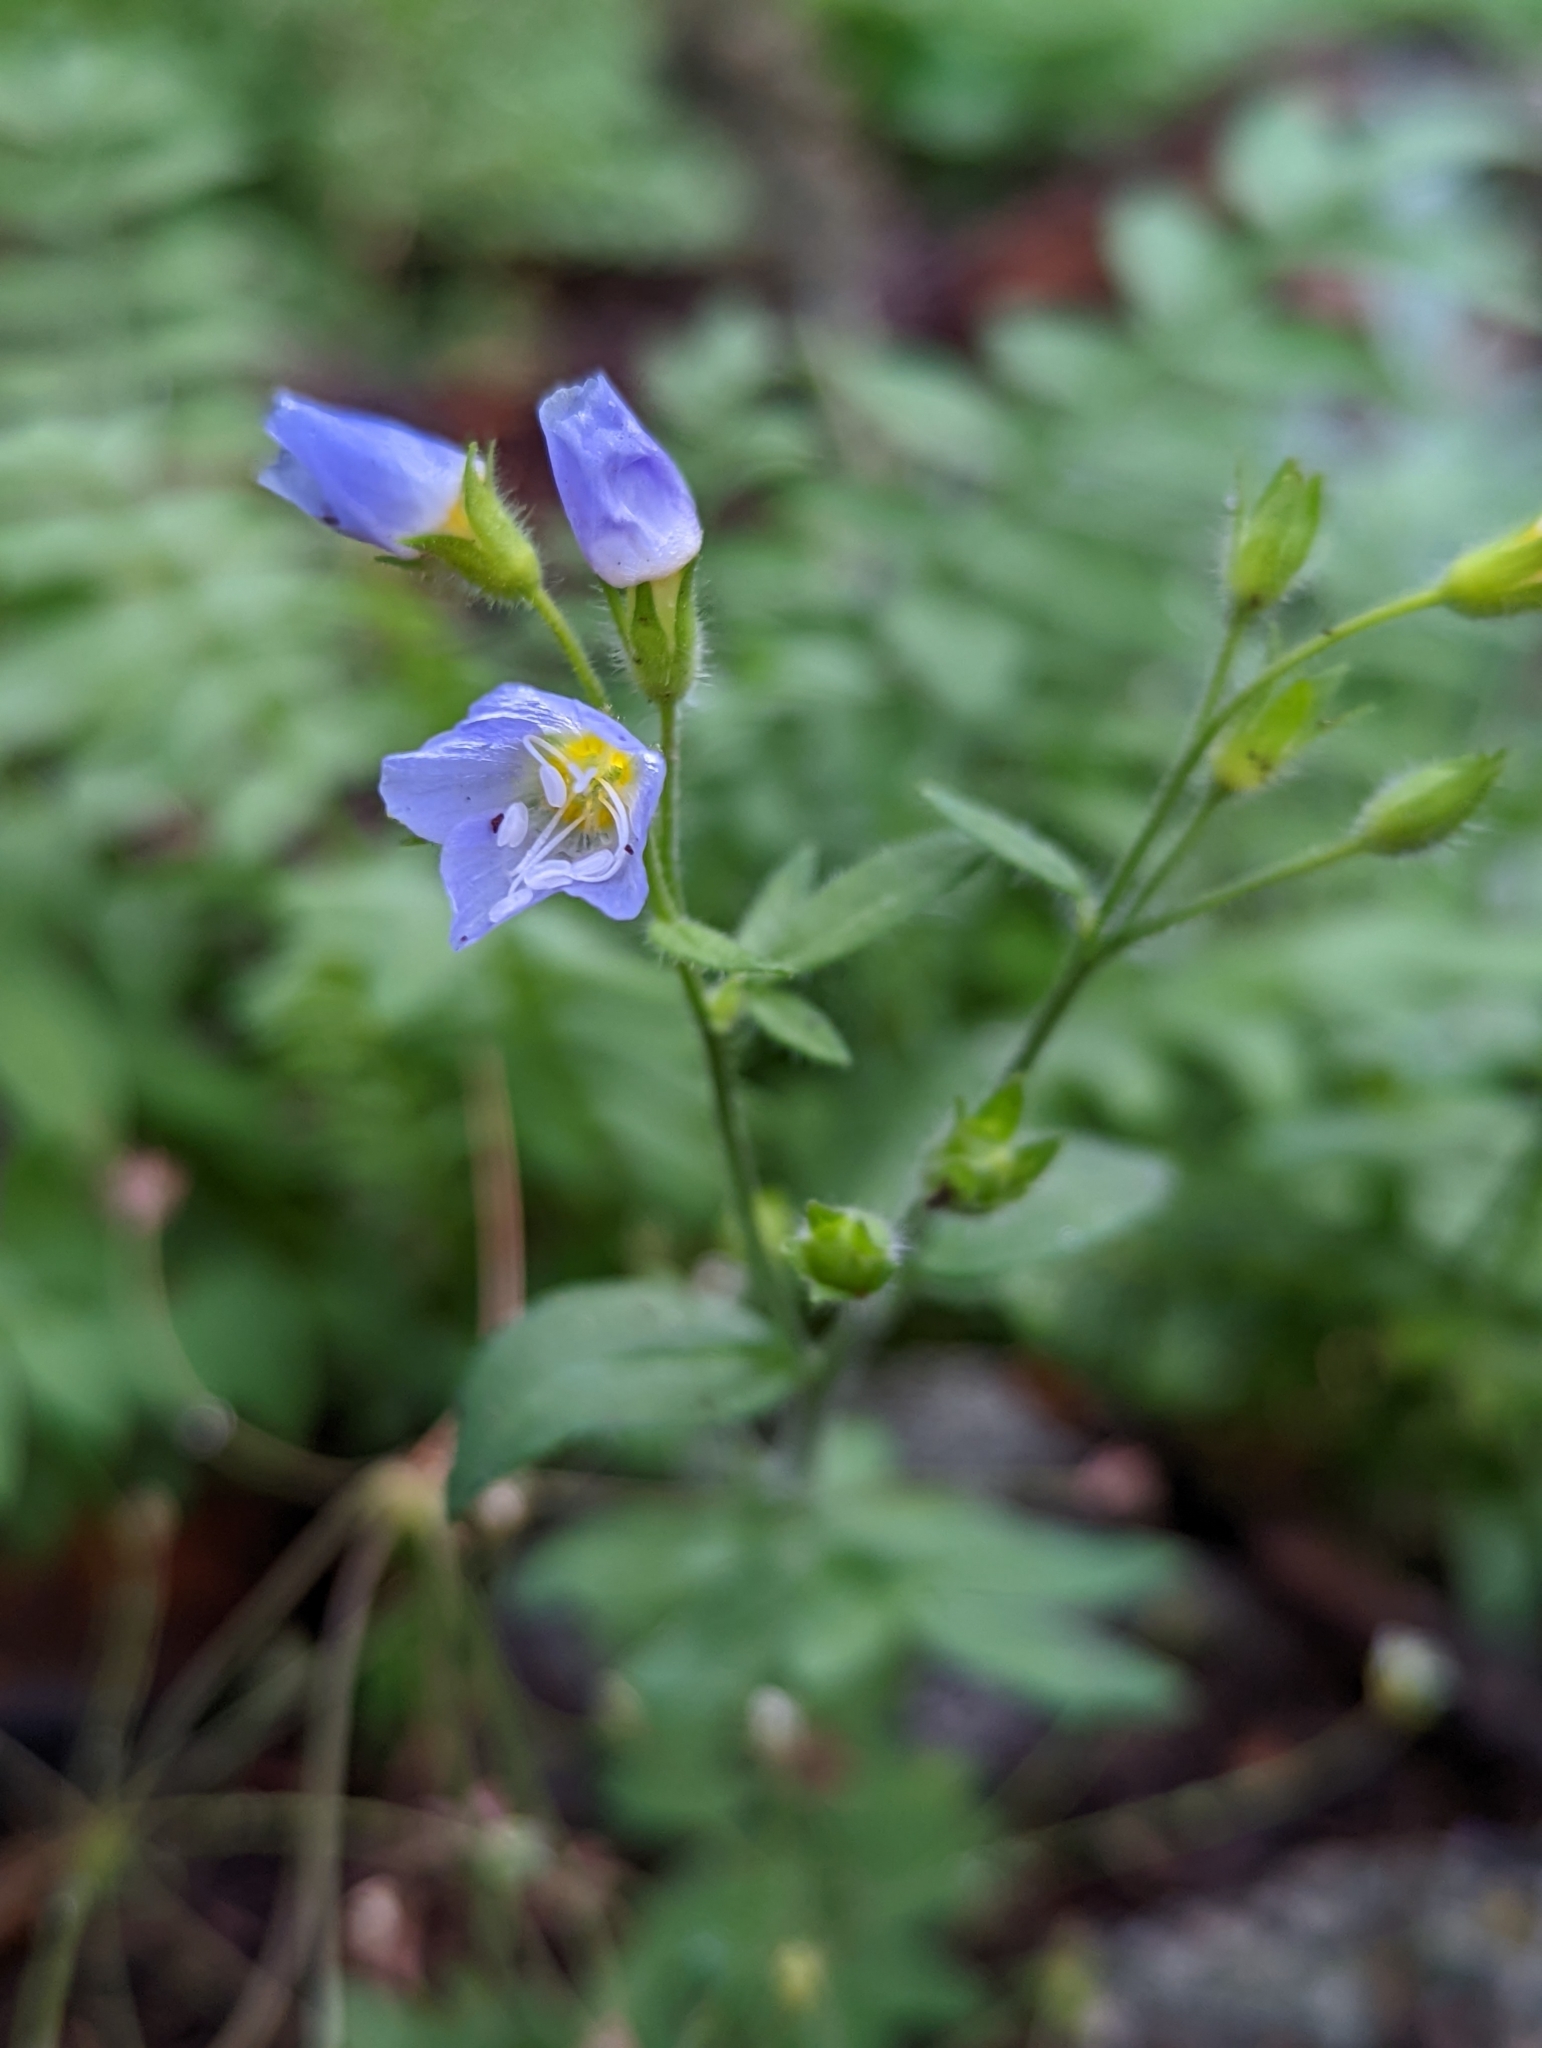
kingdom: Plantae
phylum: Tracheophyta
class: Magnoliopsida
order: Ericales
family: Polemoniaceae
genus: Polemonium
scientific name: Polemonium pulcherrimum
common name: Short jacob's-ladder
